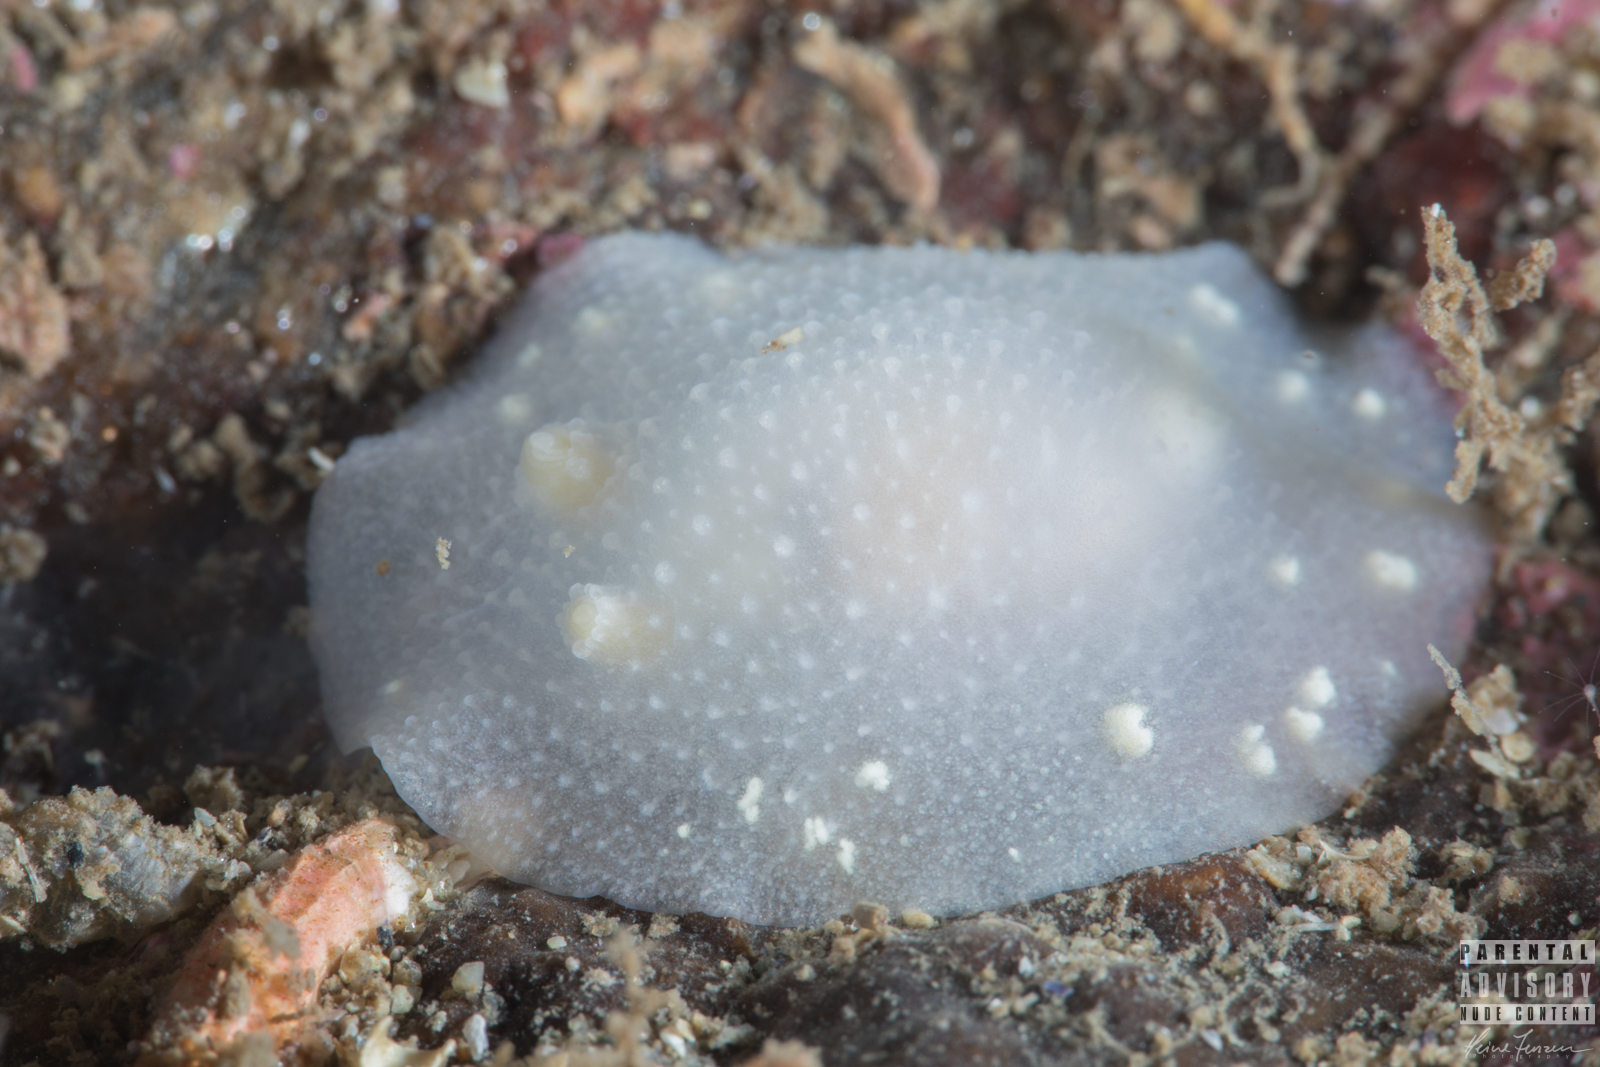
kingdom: Animalia
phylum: Mollusca
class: Gastropoda
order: Nudibranchia
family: Cadlinidae
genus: Cadlina
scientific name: Cadlina laevis
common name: White atlantic cadlina
